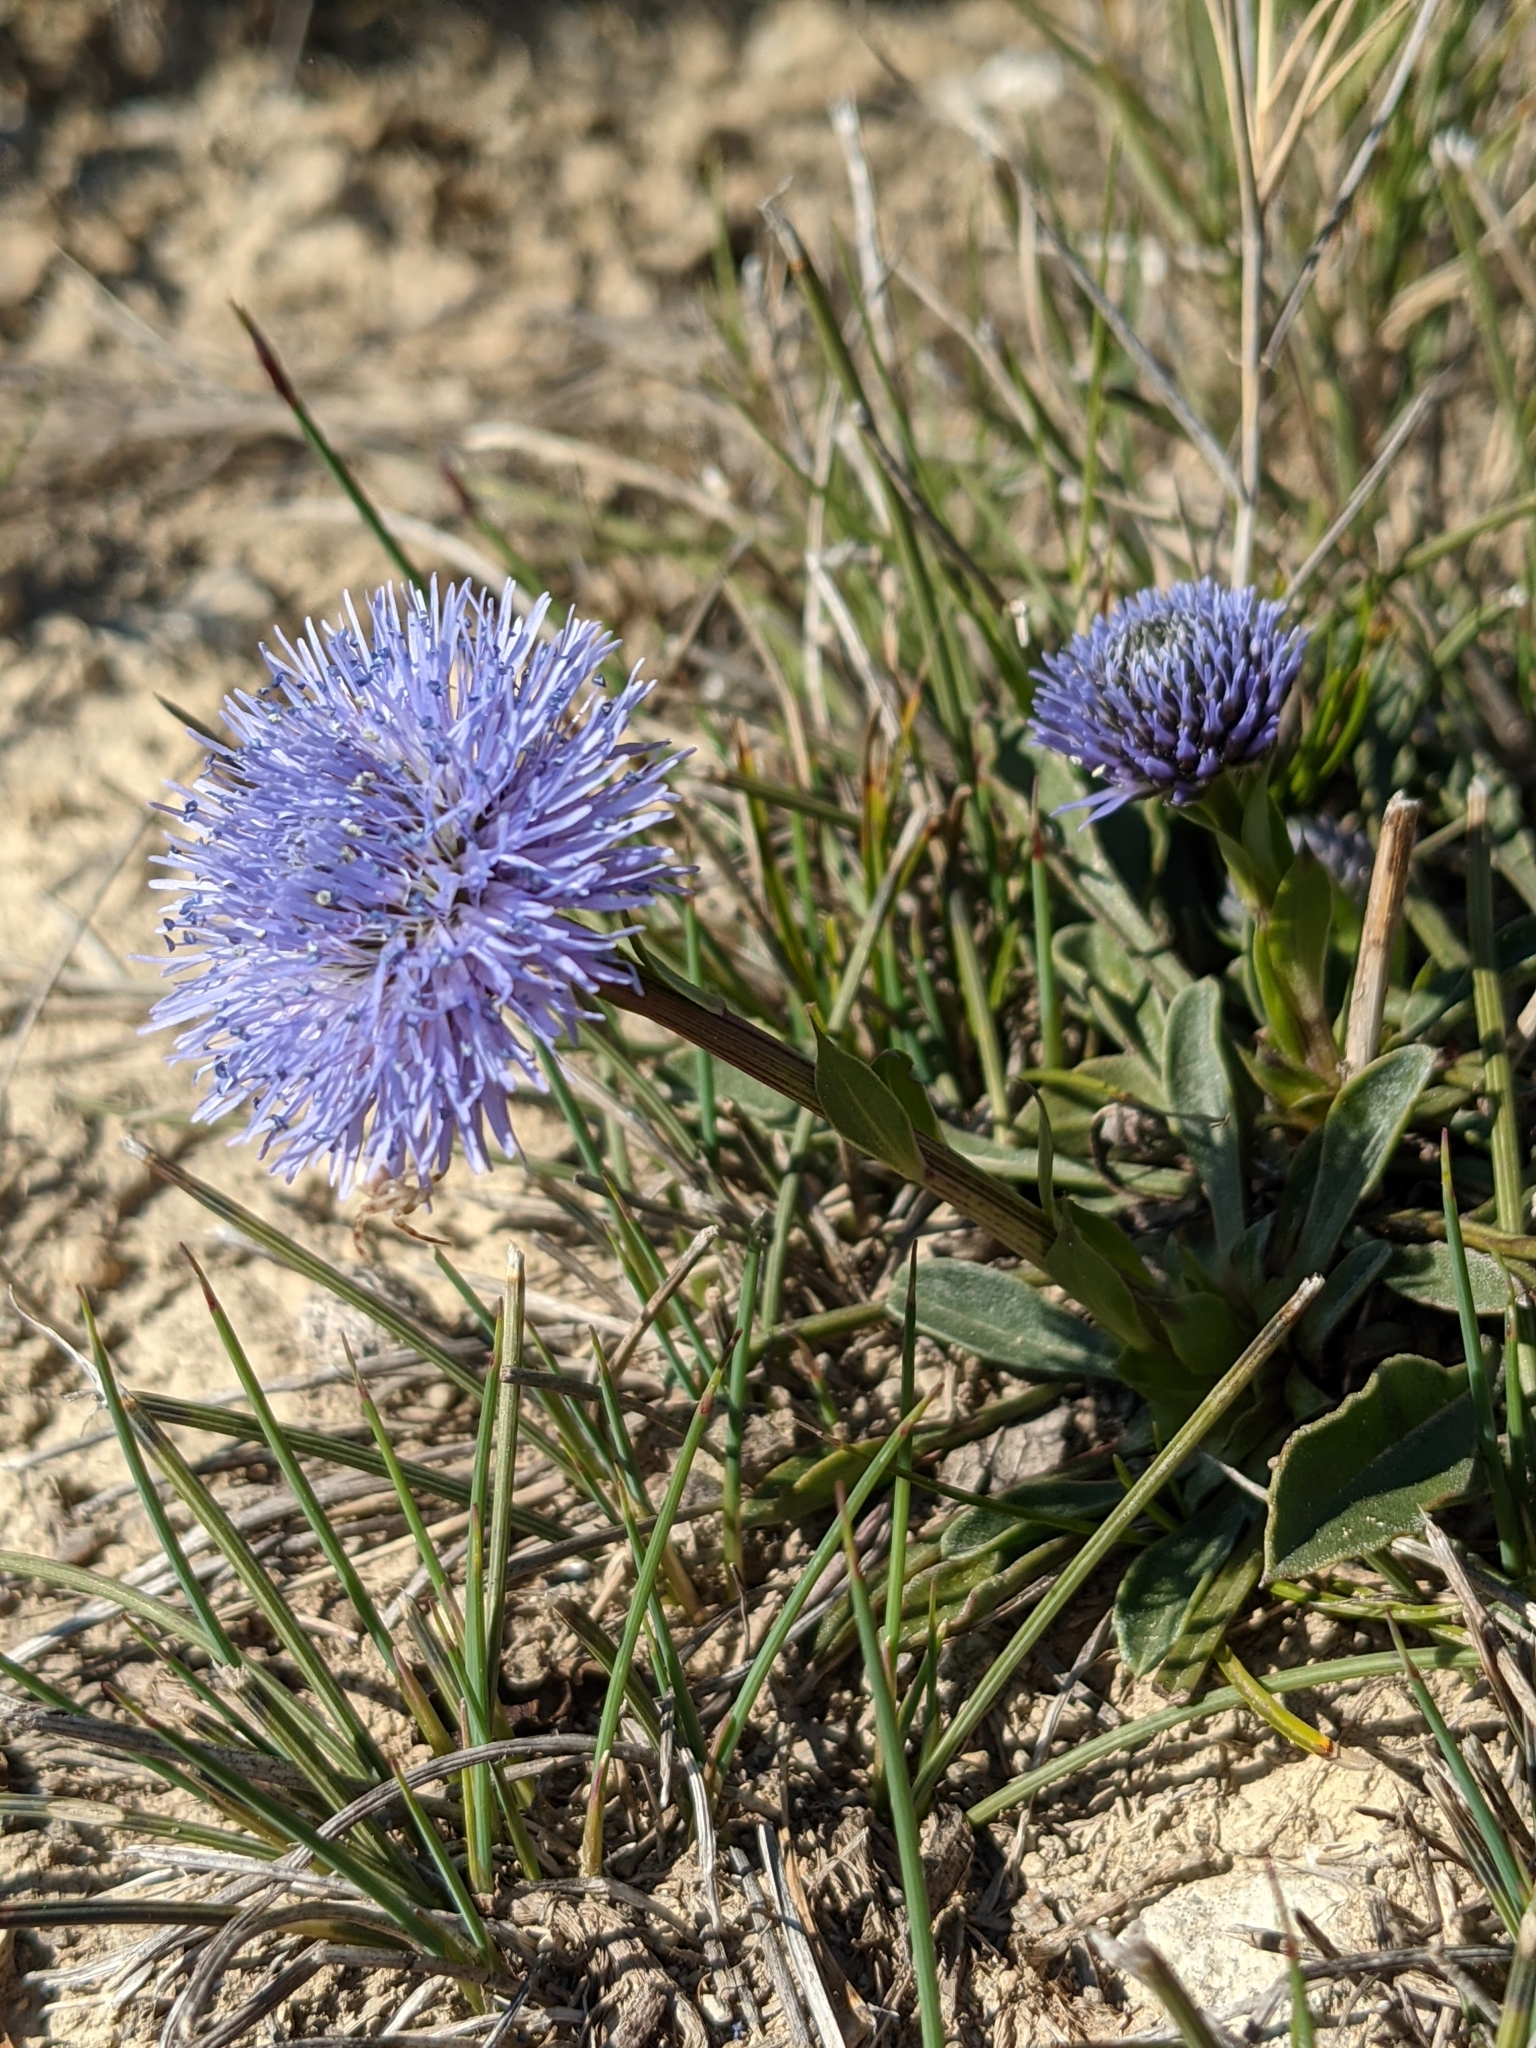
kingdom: Plantae
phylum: Tracheophyta
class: Magnoliopsida
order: Lamiales
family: Plantaginaceae
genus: Globularia
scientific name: Globularia vulgaris
